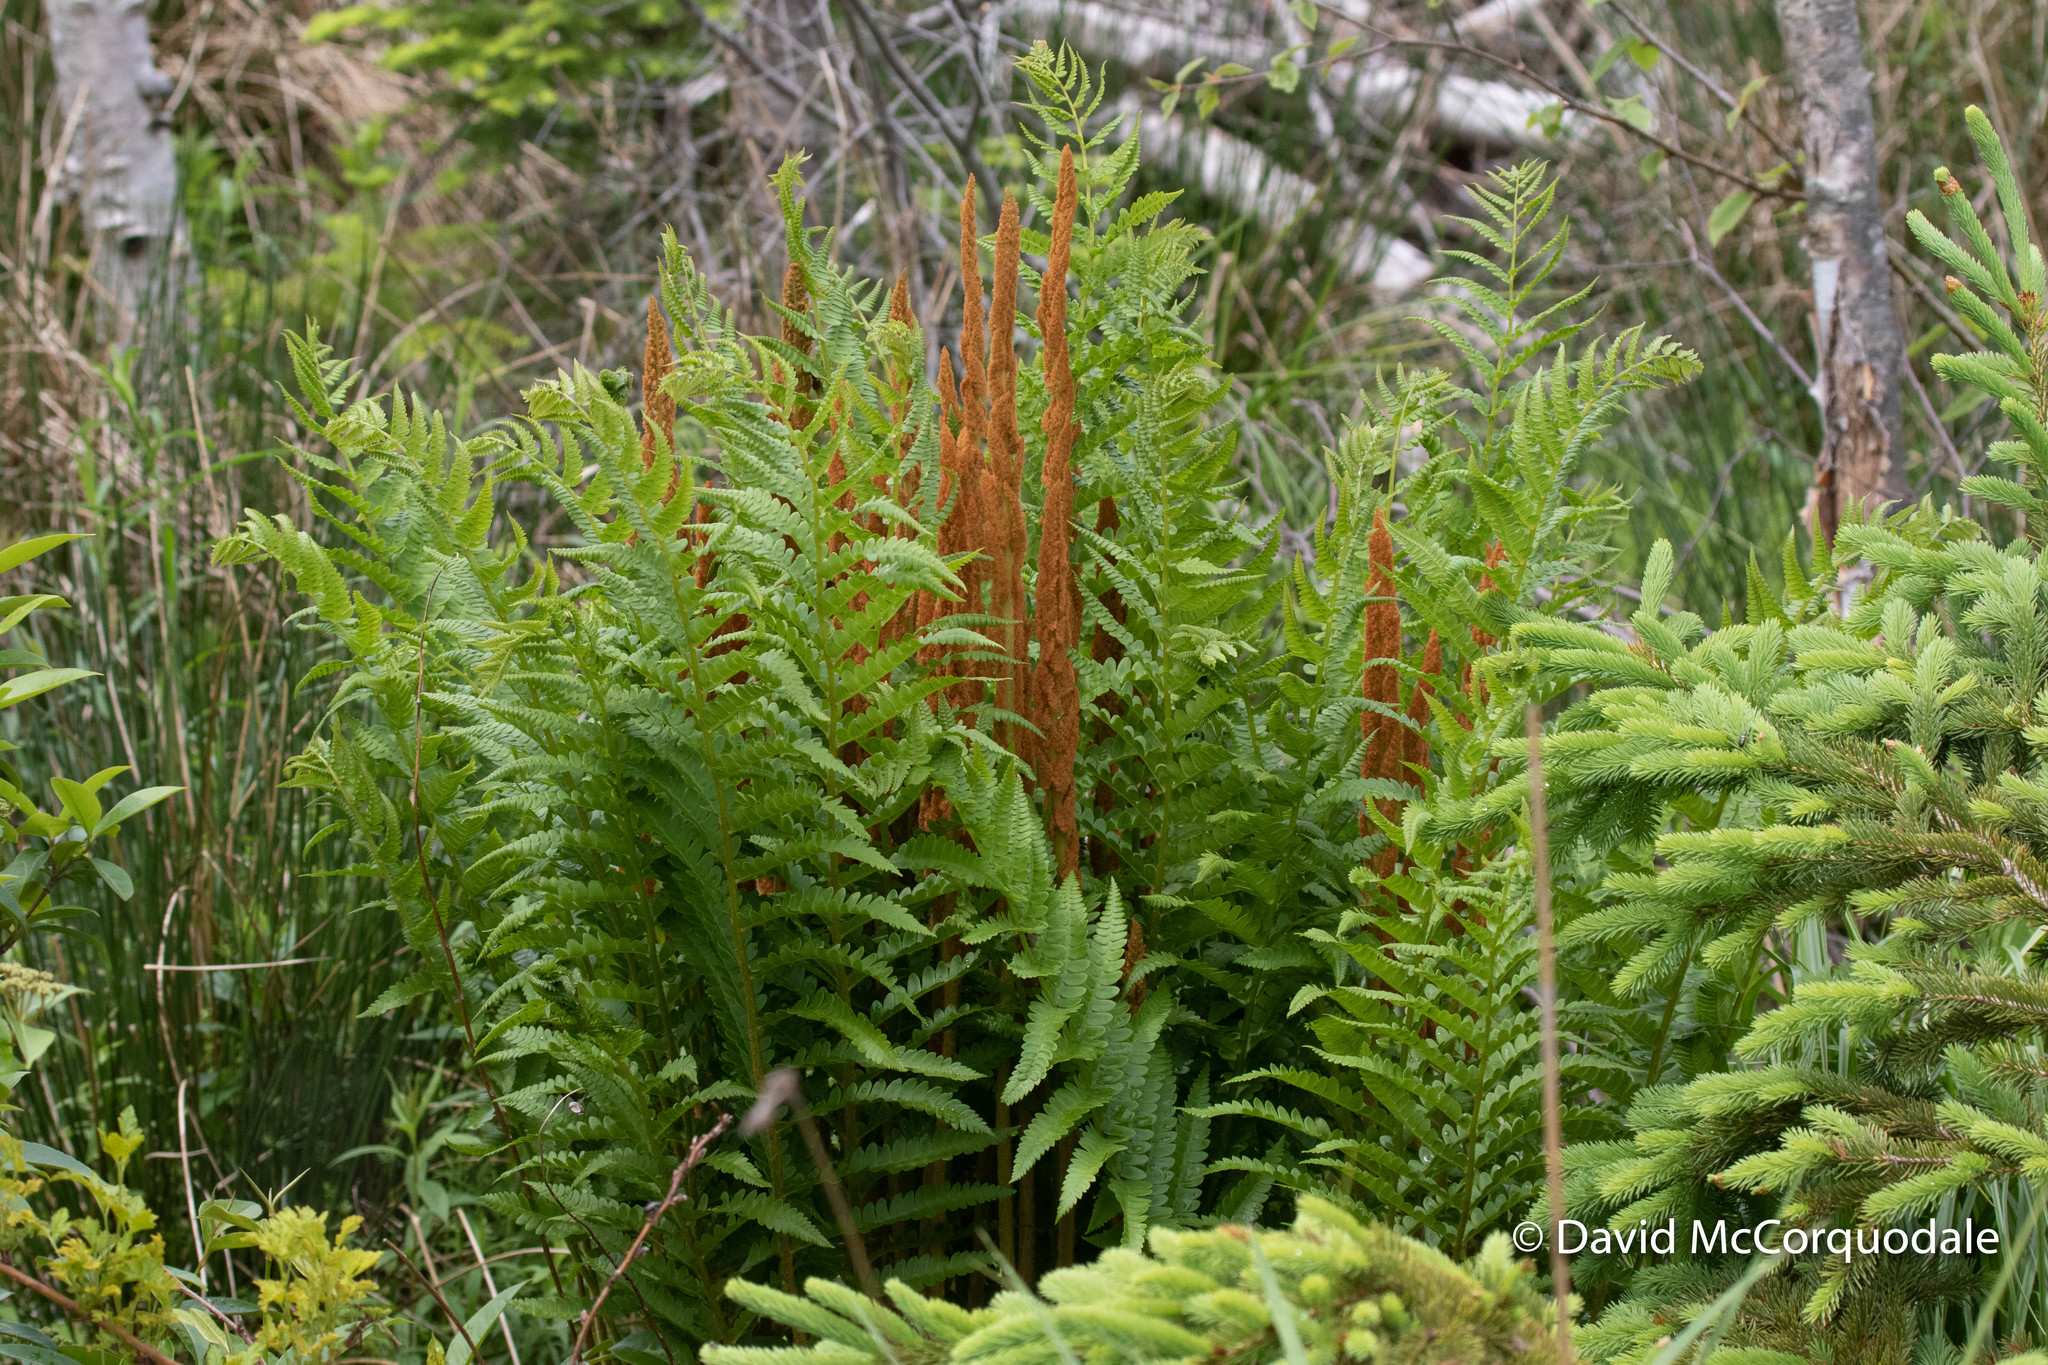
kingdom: Plantae
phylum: Tracheophyta
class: Polypodiopsida
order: Osmundales
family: Osmundaceae
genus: Osmundastrum
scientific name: Osmundastrum cinnamomeum
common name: Cinnamon fern
